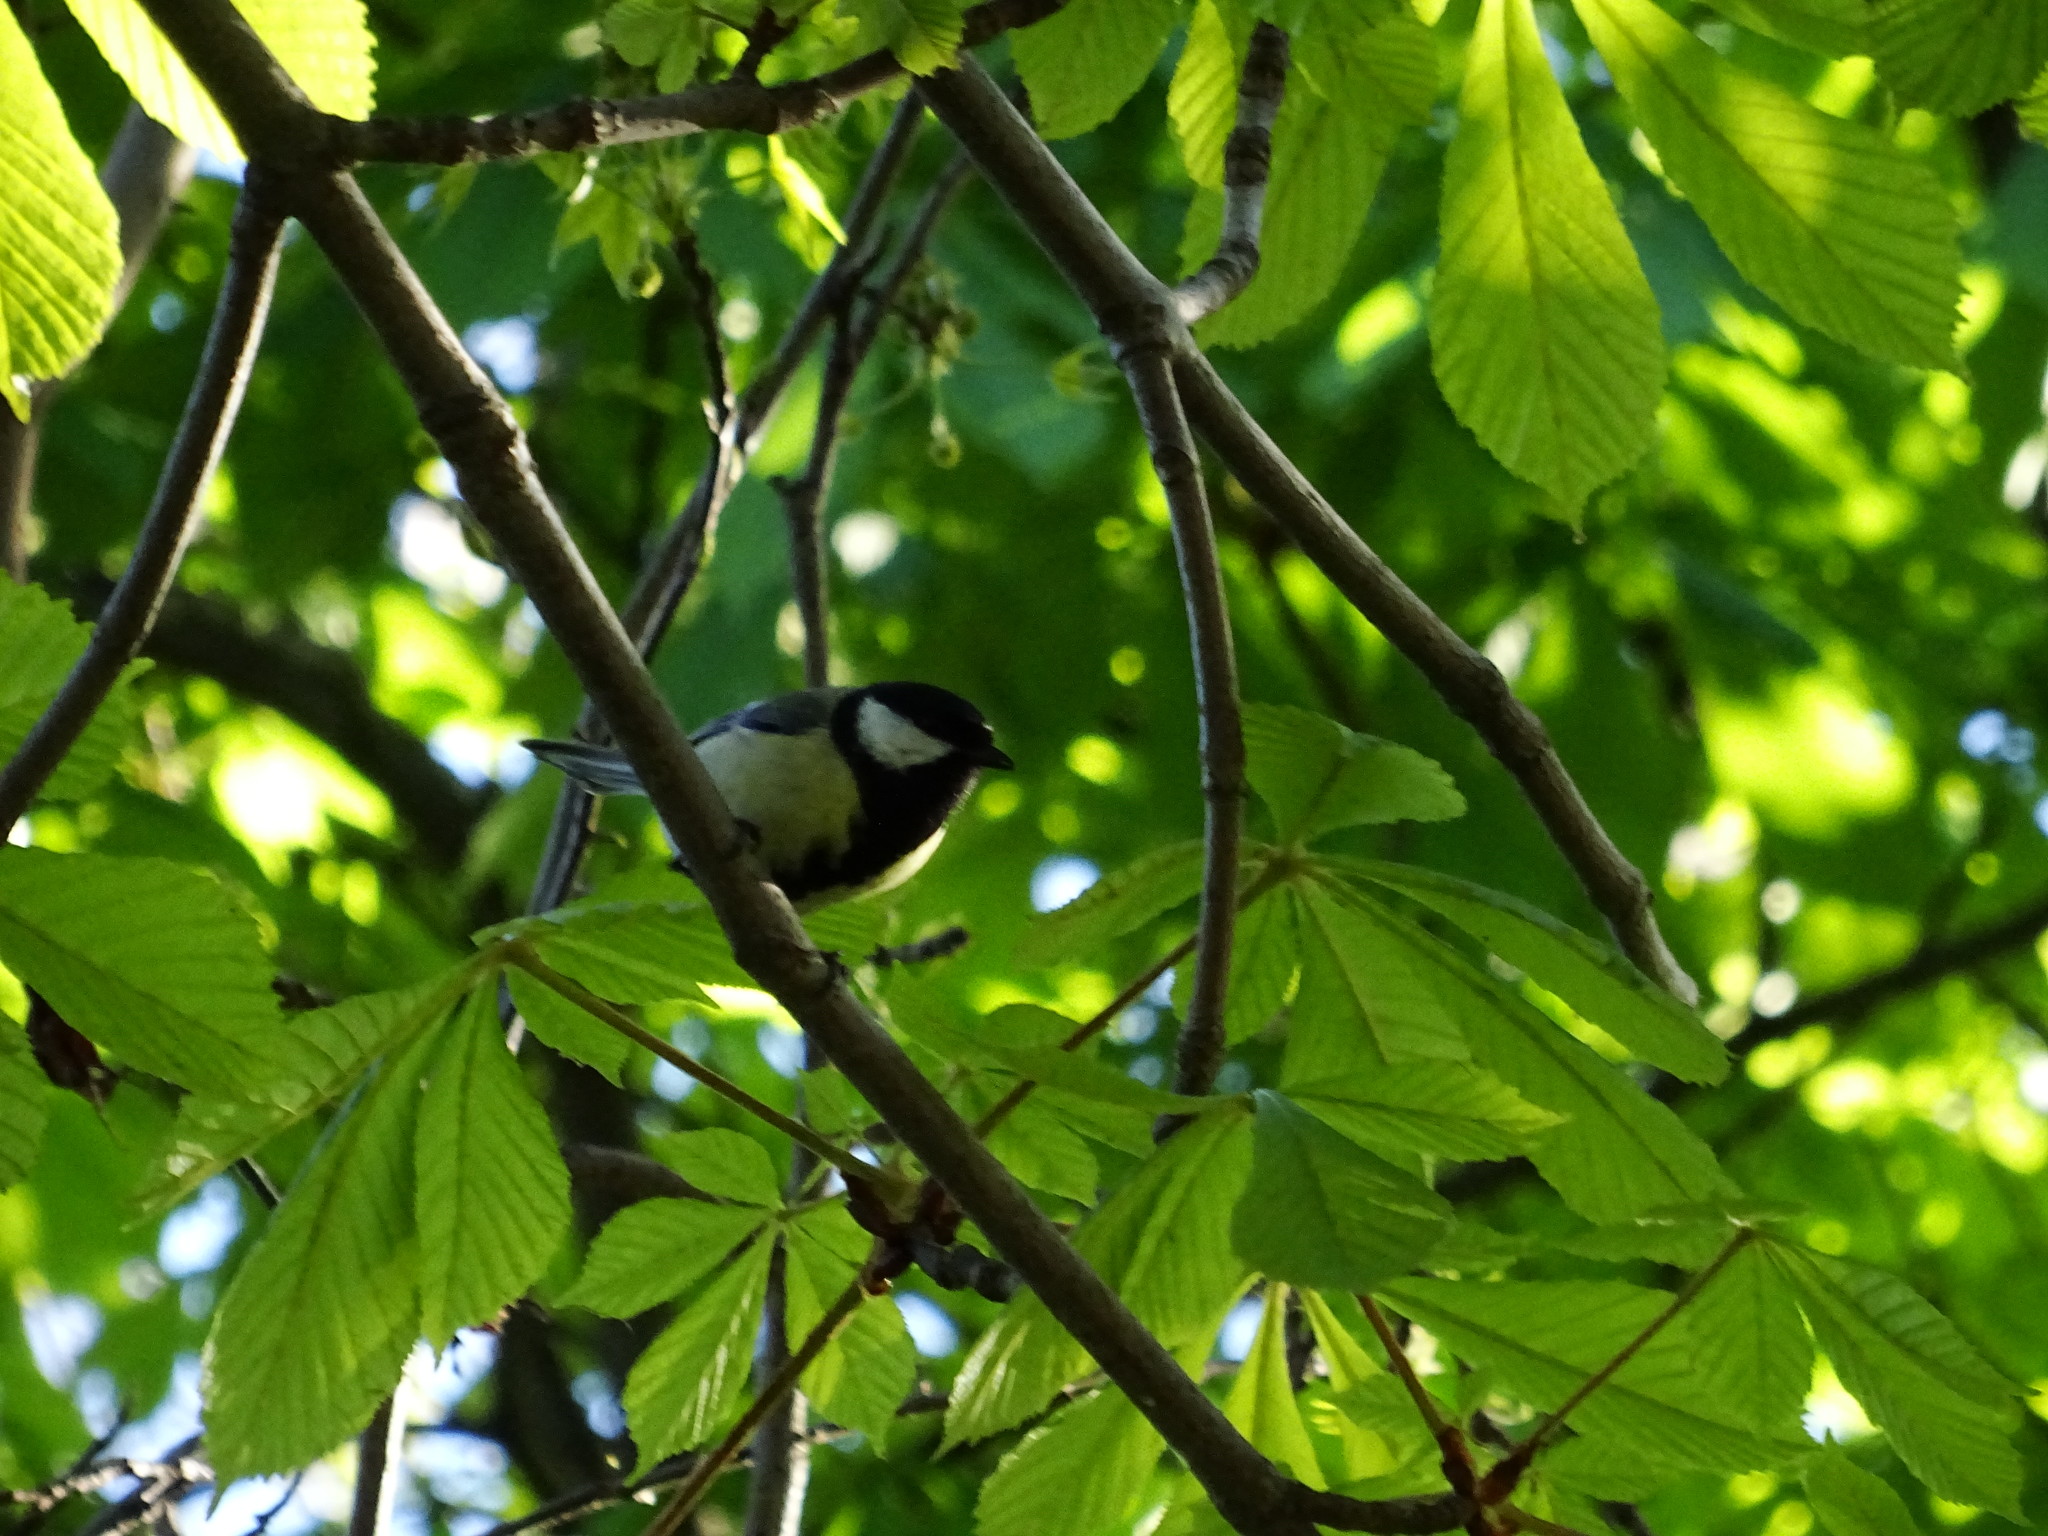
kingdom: Animalia
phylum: Chordata
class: Aves
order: Passeriformes
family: Paridae
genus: Parus
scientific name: Parus major
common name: Great tit
